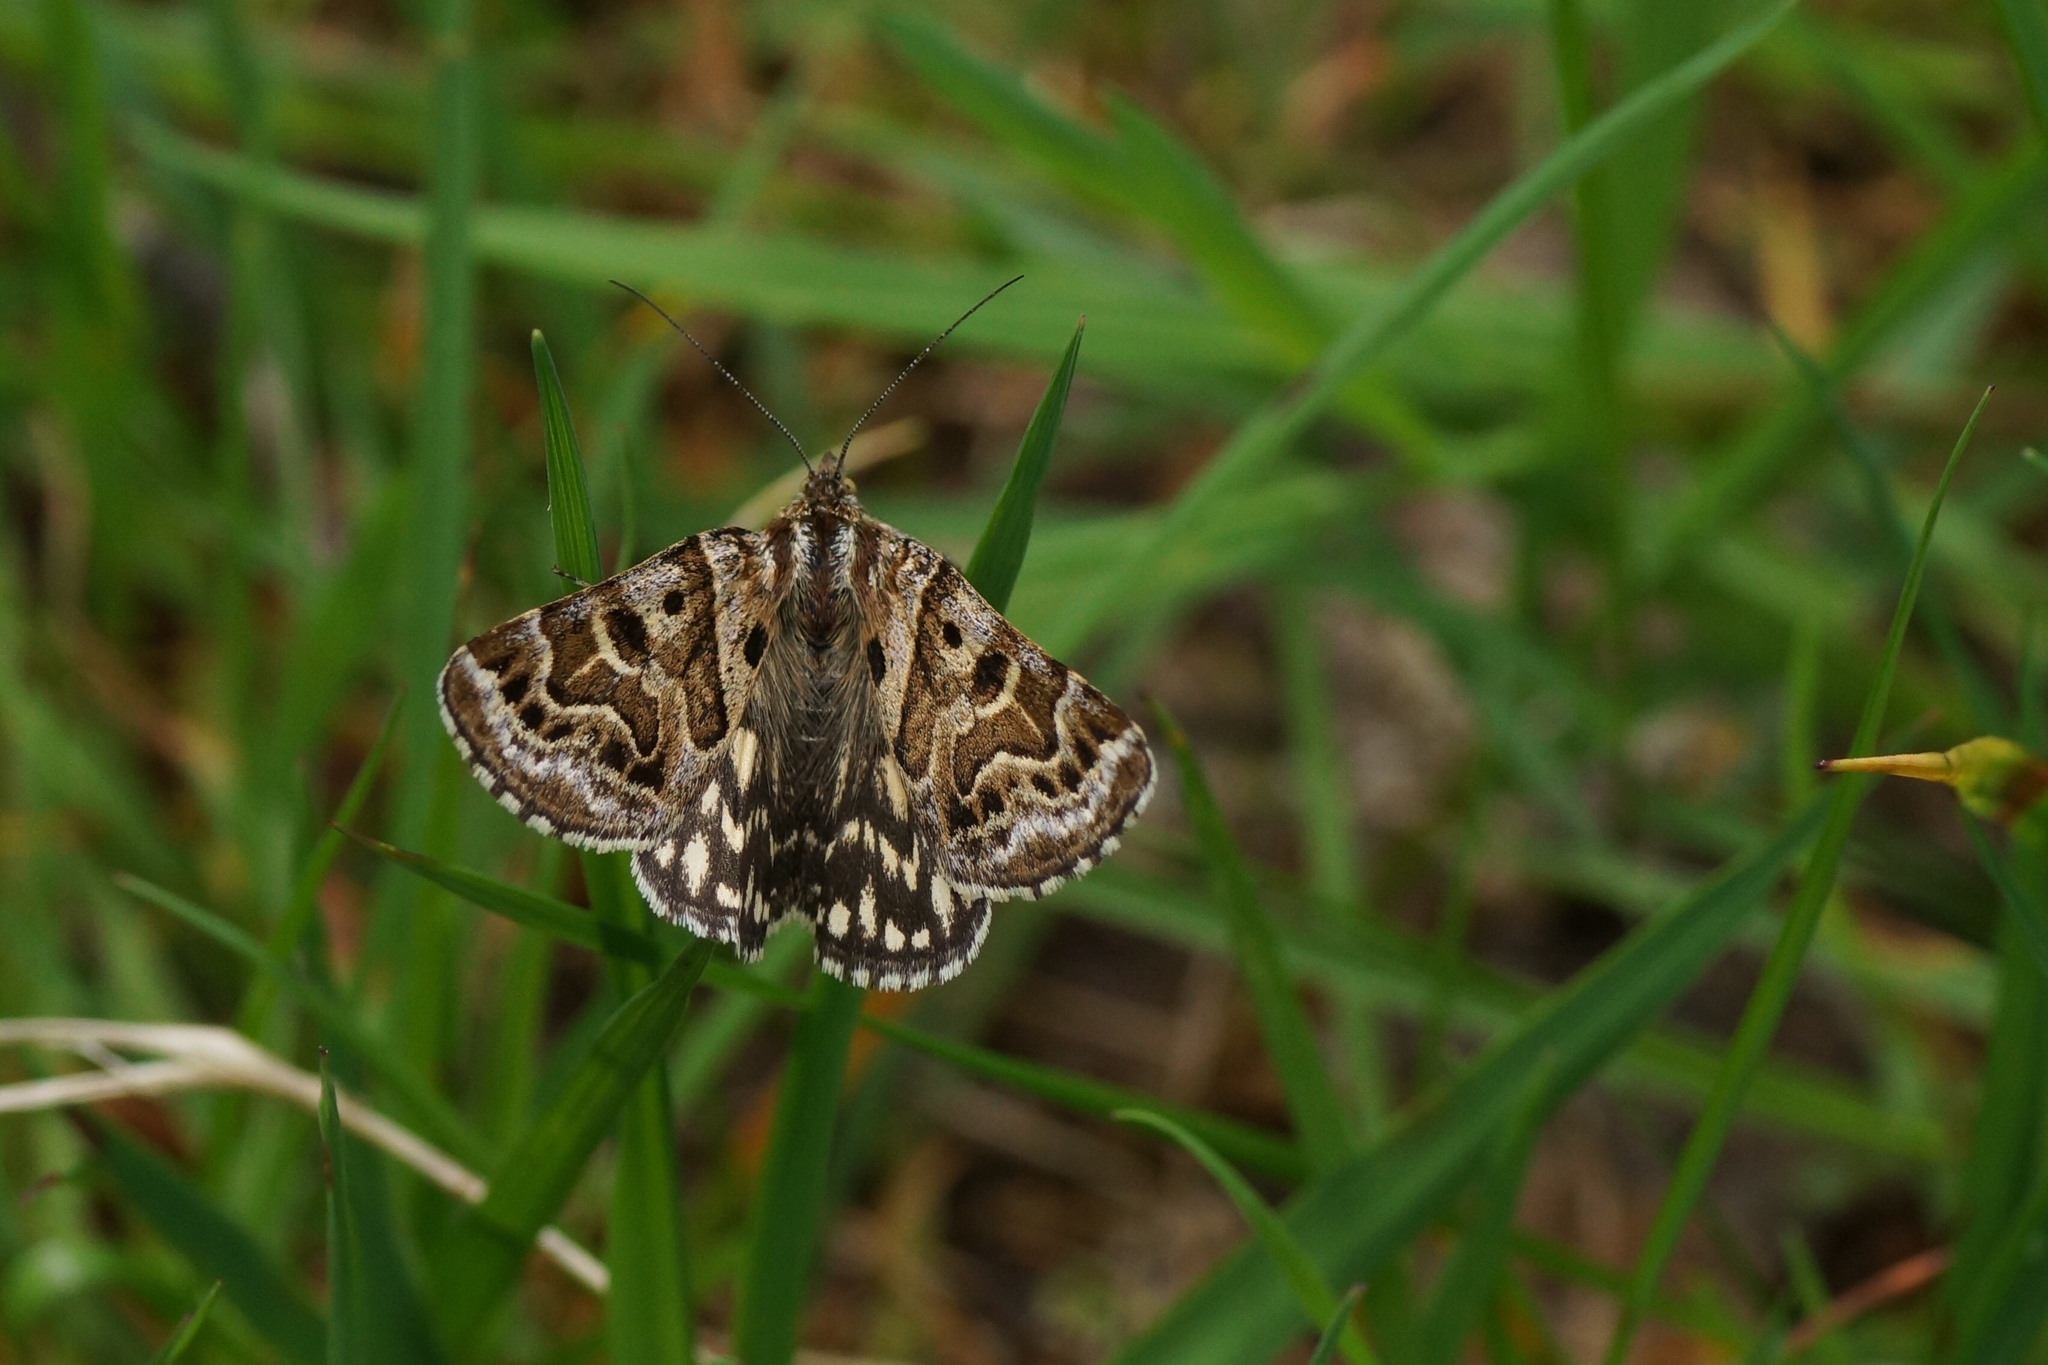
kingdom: Animalia
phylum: Arthropoda
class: Insecta
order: Lepidoptera
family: Erebidae
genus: Callistege
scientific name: Callistege mi
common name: Mother shipton
